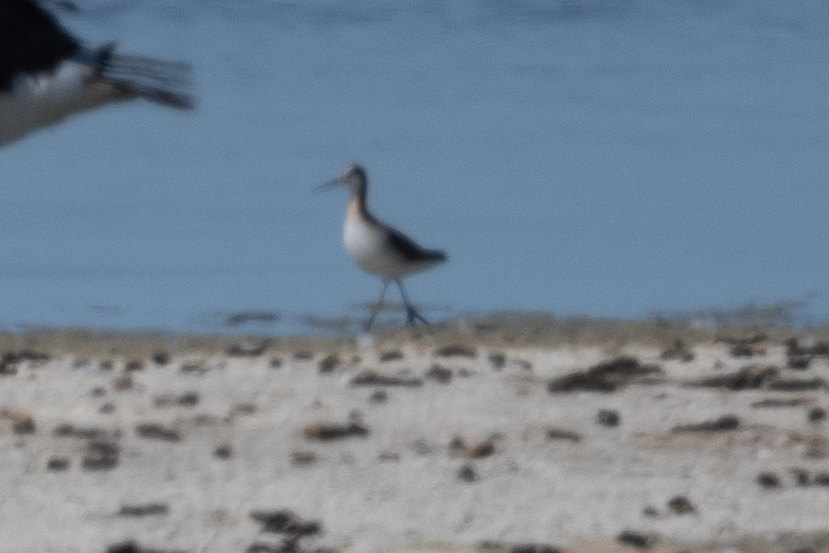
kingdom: Animalia
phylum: Chordata
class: Aves
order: Charadriiformes
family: Scolopacidae
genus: Phalaropus
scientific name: Phalaropus tricolor
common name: Wilson's phalarope
